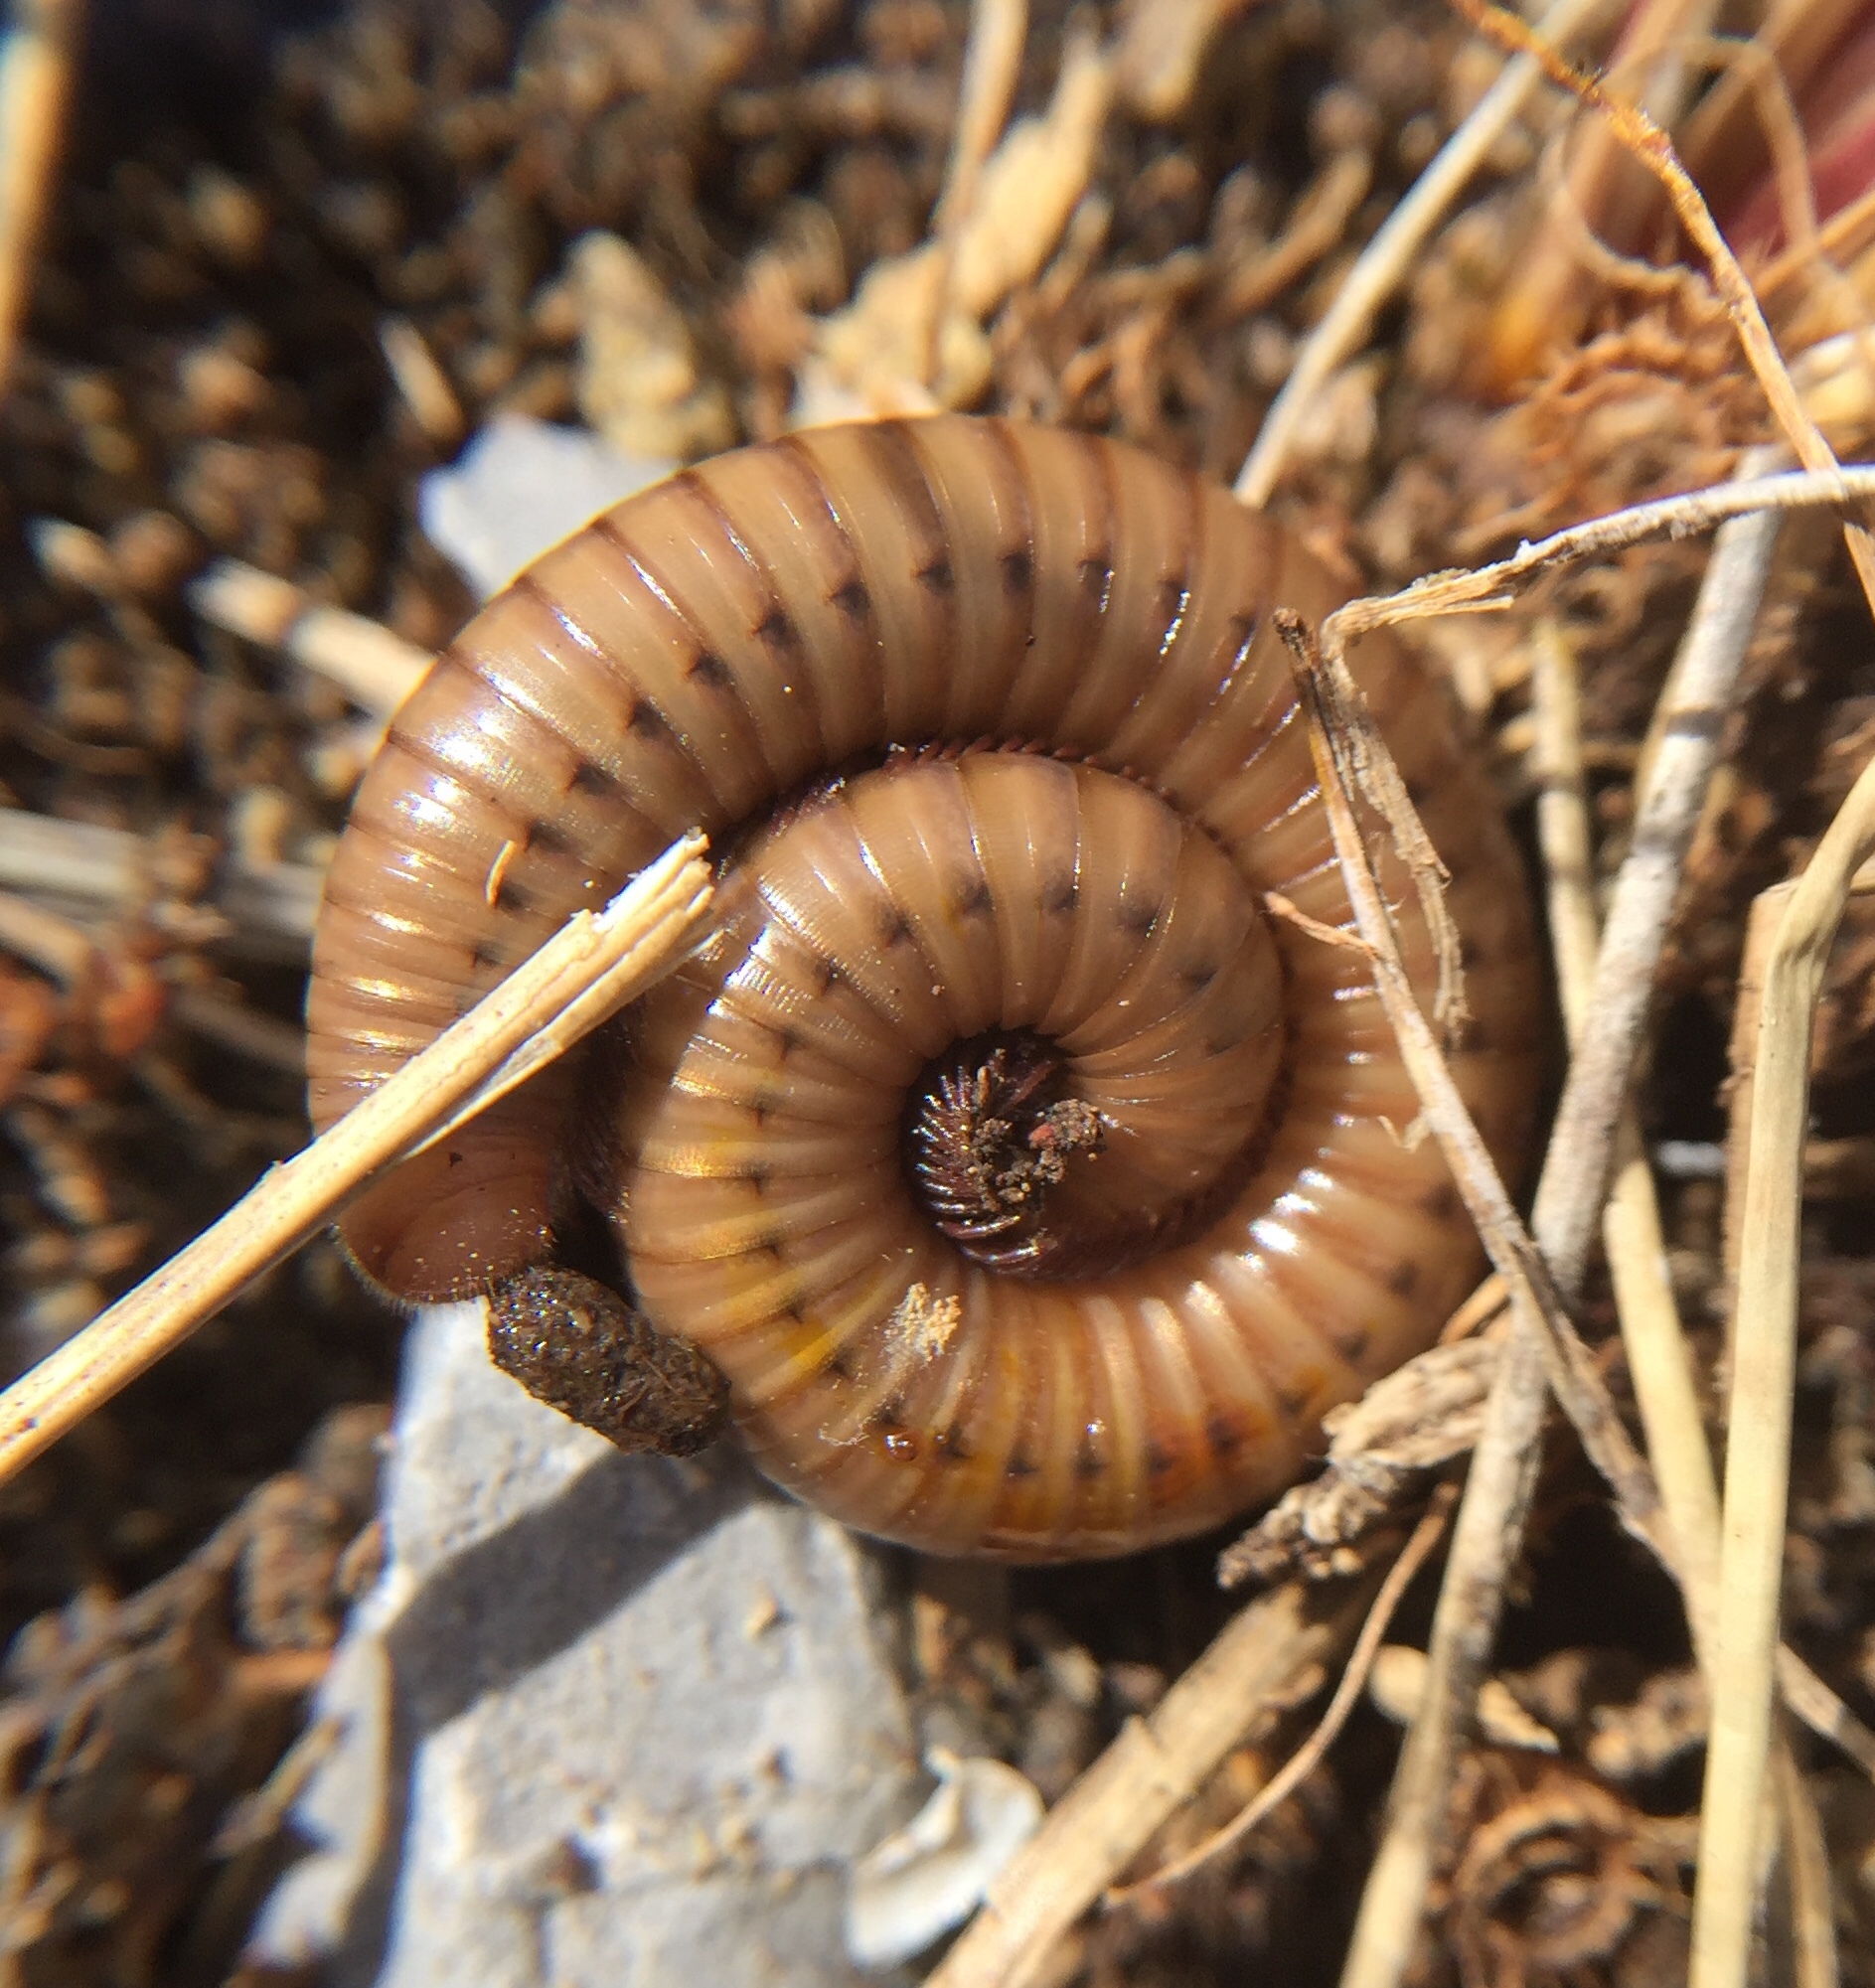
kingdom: Animalia
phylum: Arthropoda
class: Diplopoda
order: Julida
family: Julidae
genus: Pachyiulus
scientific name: Pachyiulus cattarensis
